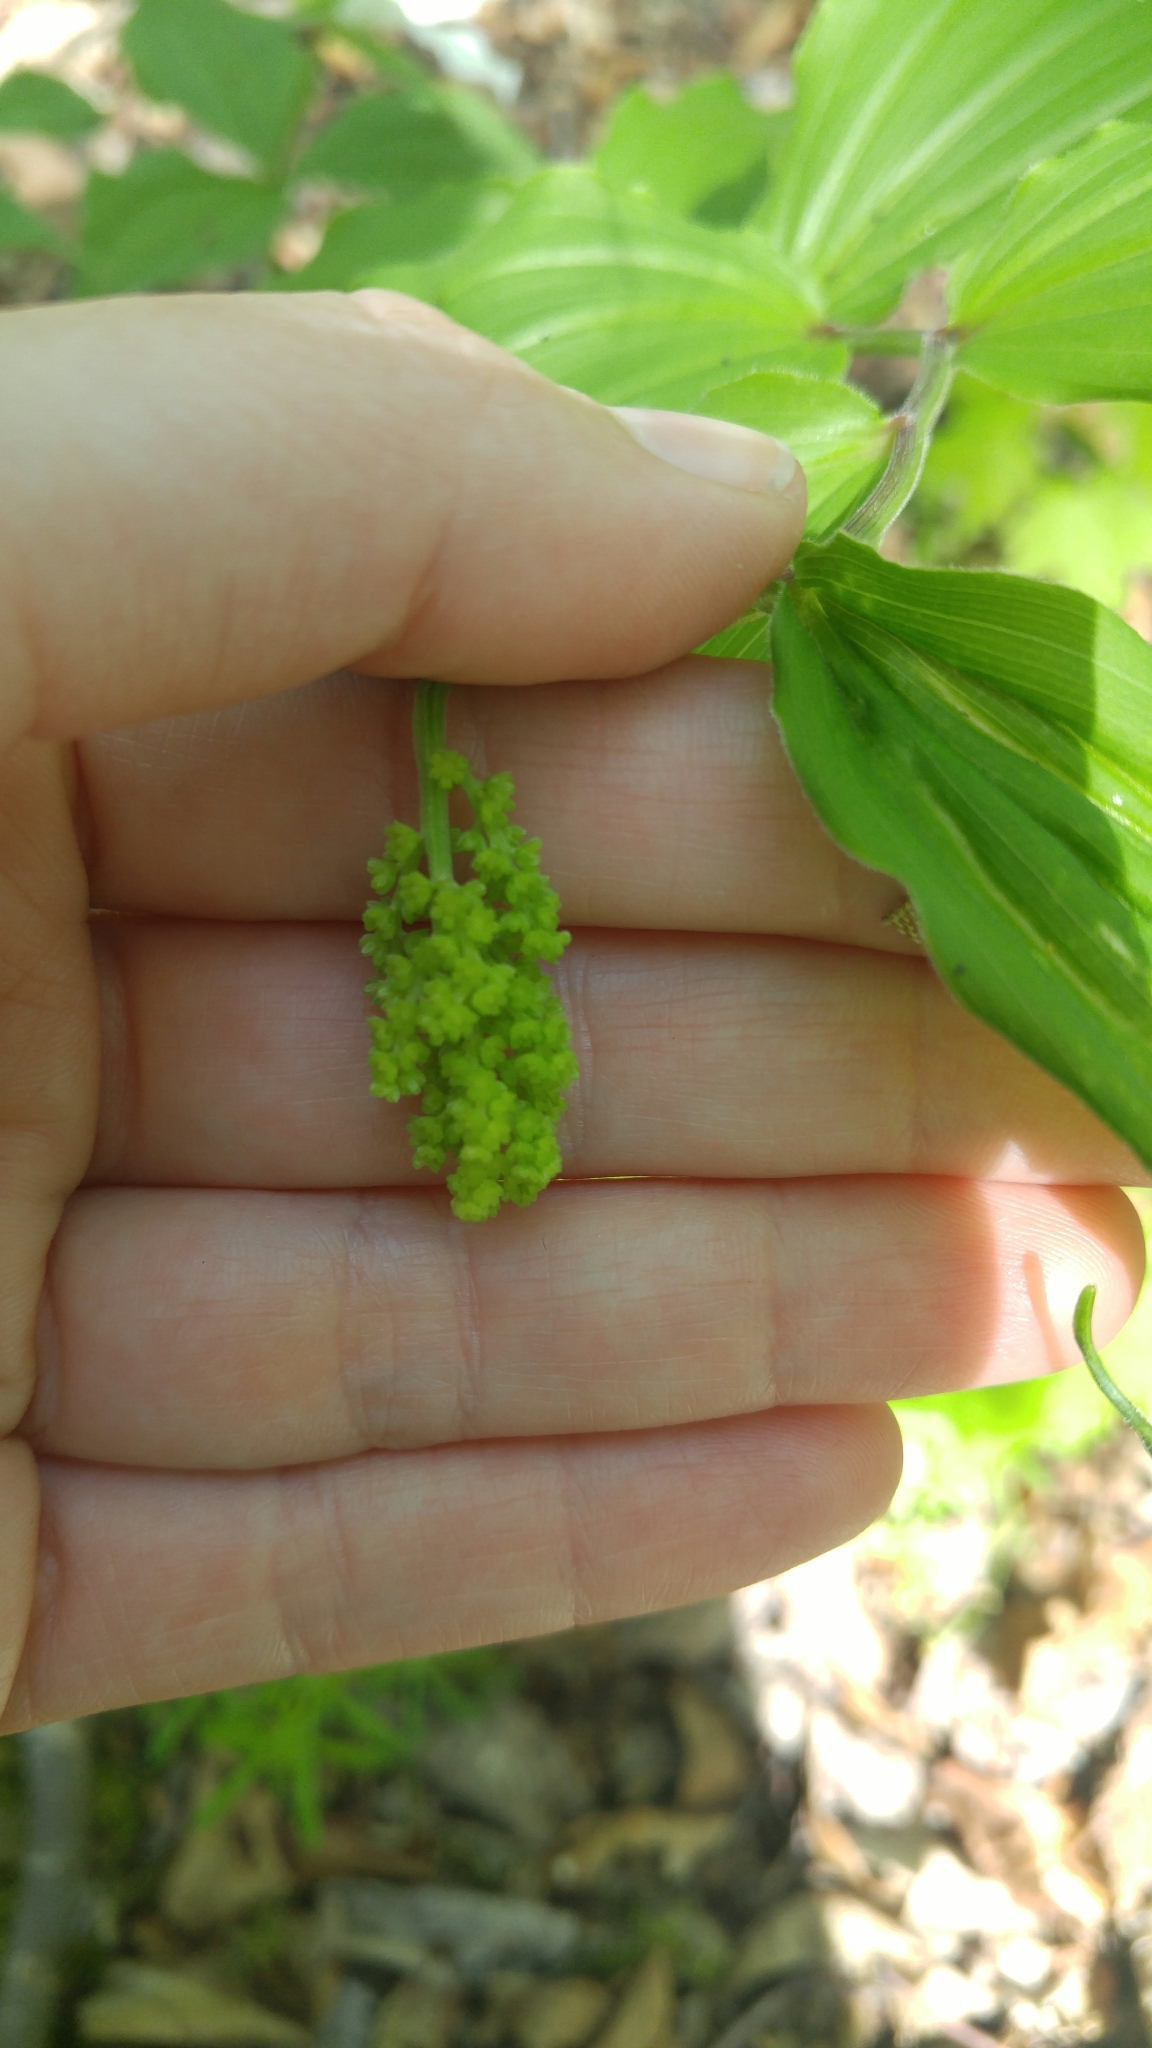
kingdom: Plantae
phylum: Tracheophyta
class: Liliopsida
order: Asparagales
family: Asparagaceae
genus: Maianthemum
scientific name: Maianthemum racemosum
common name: False spikenard
